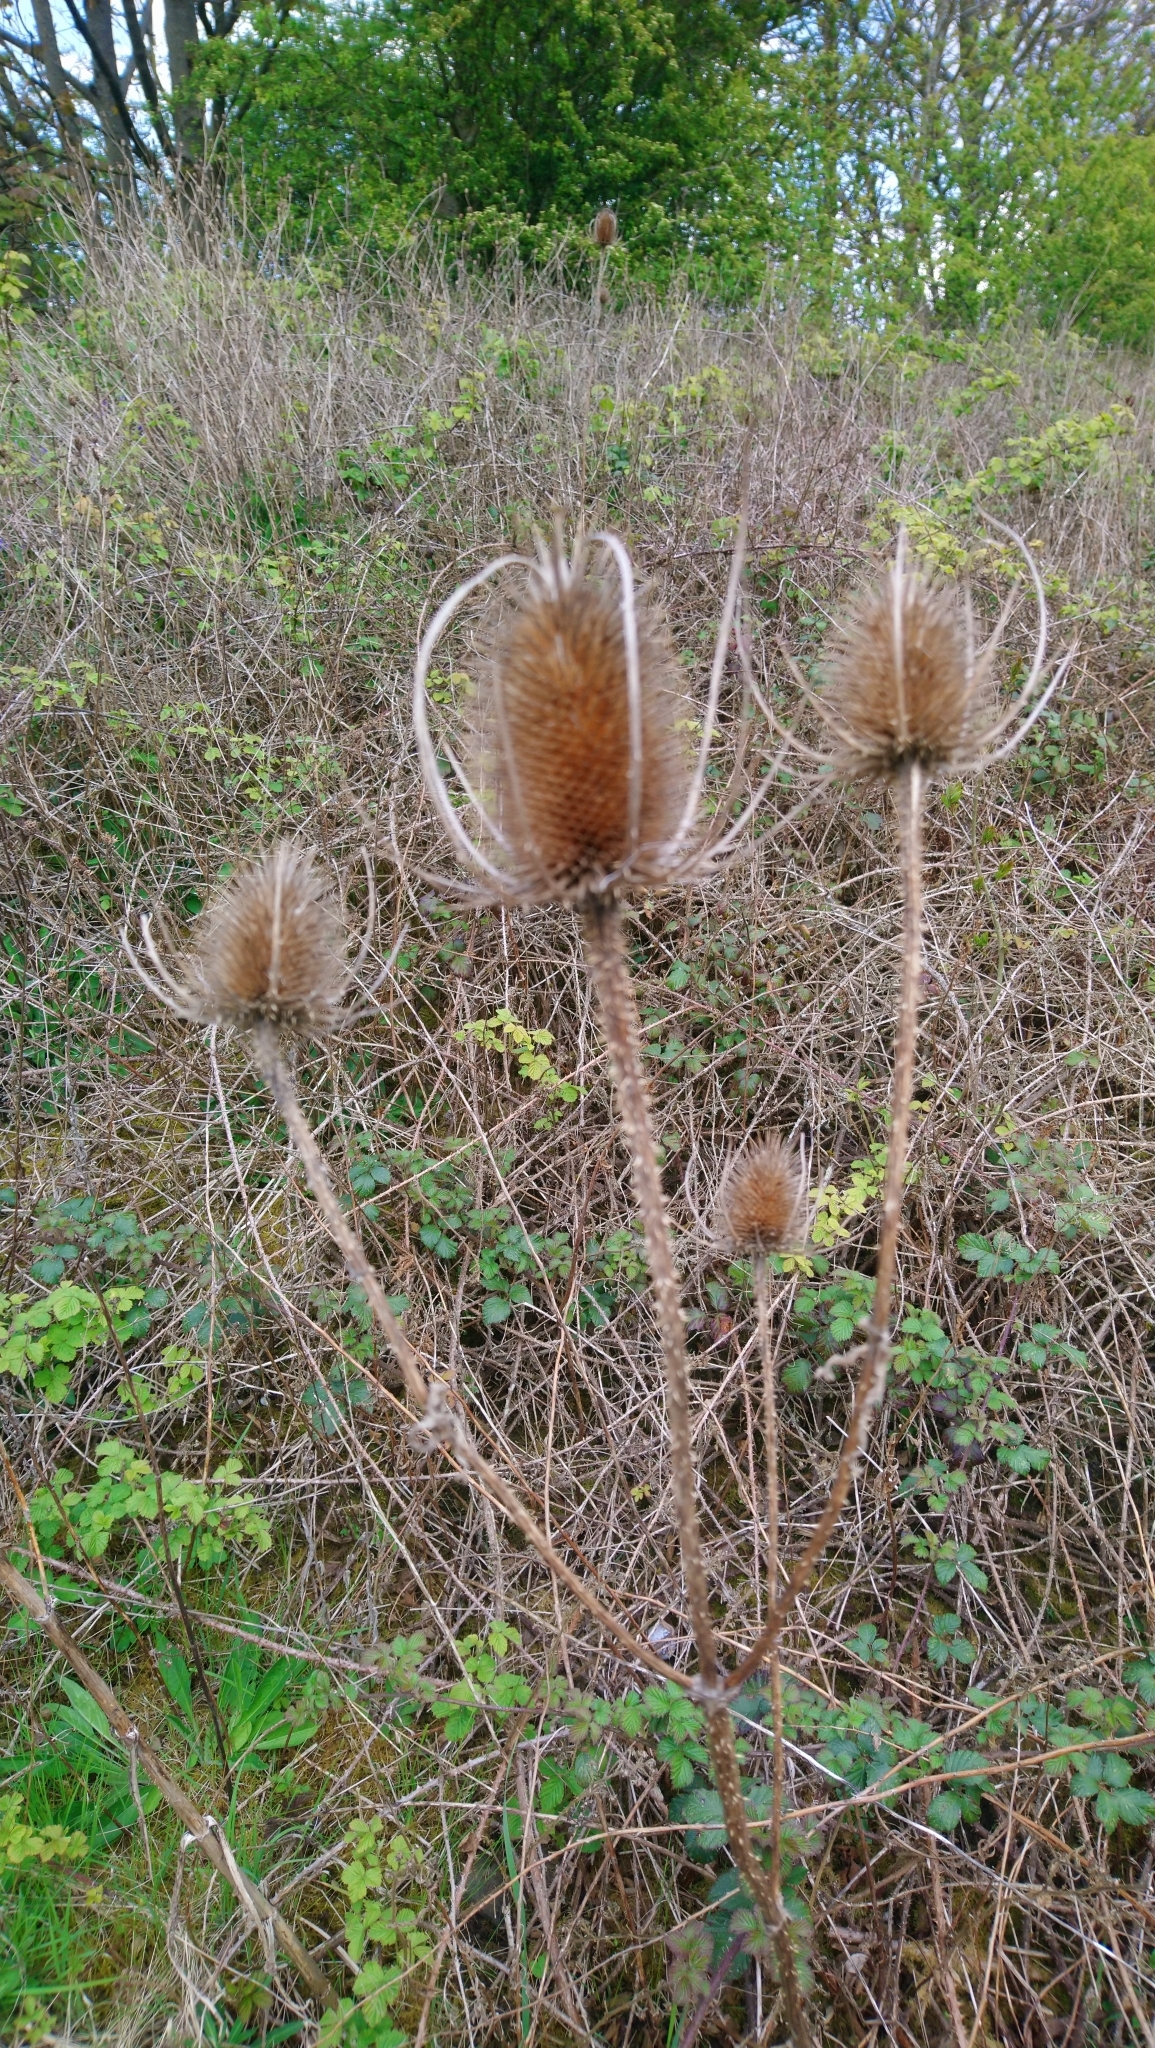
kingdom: Plantae
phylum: Tracheophyta
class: Magnoliopsida
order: Dipsacales
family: Caprifoliaceae
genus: Dipsacus
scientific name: Dipsacus fullonum
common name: Teasel
